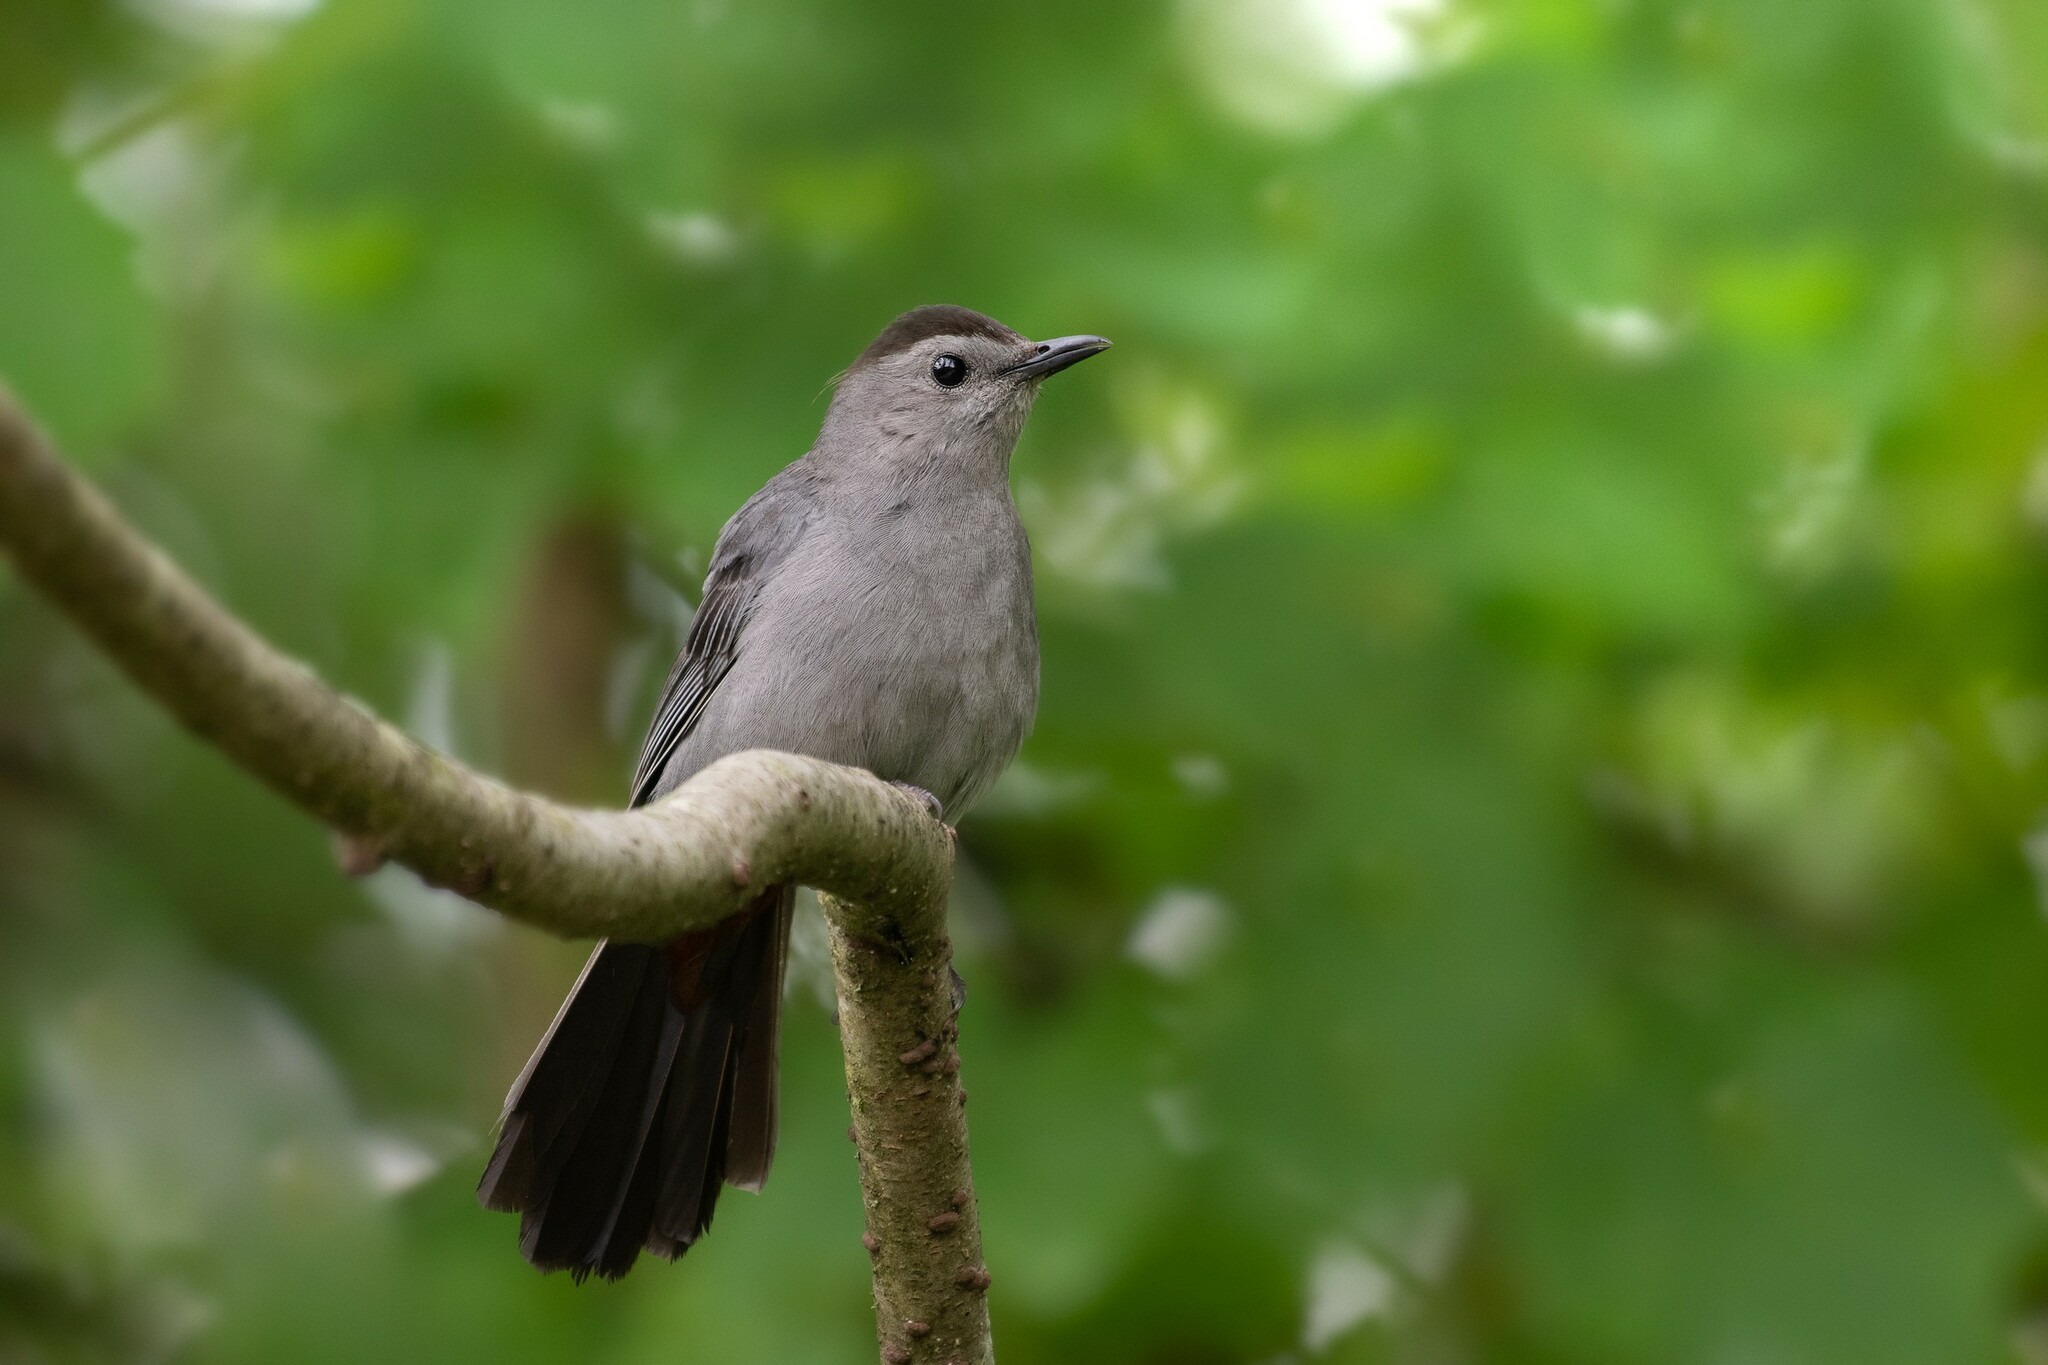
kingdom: Animalia
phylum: Chordata
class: Aves
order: Passeriformes
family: Mimidae
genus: Dumetella
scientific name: Dumetella carolinensis
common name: Gray catbird
